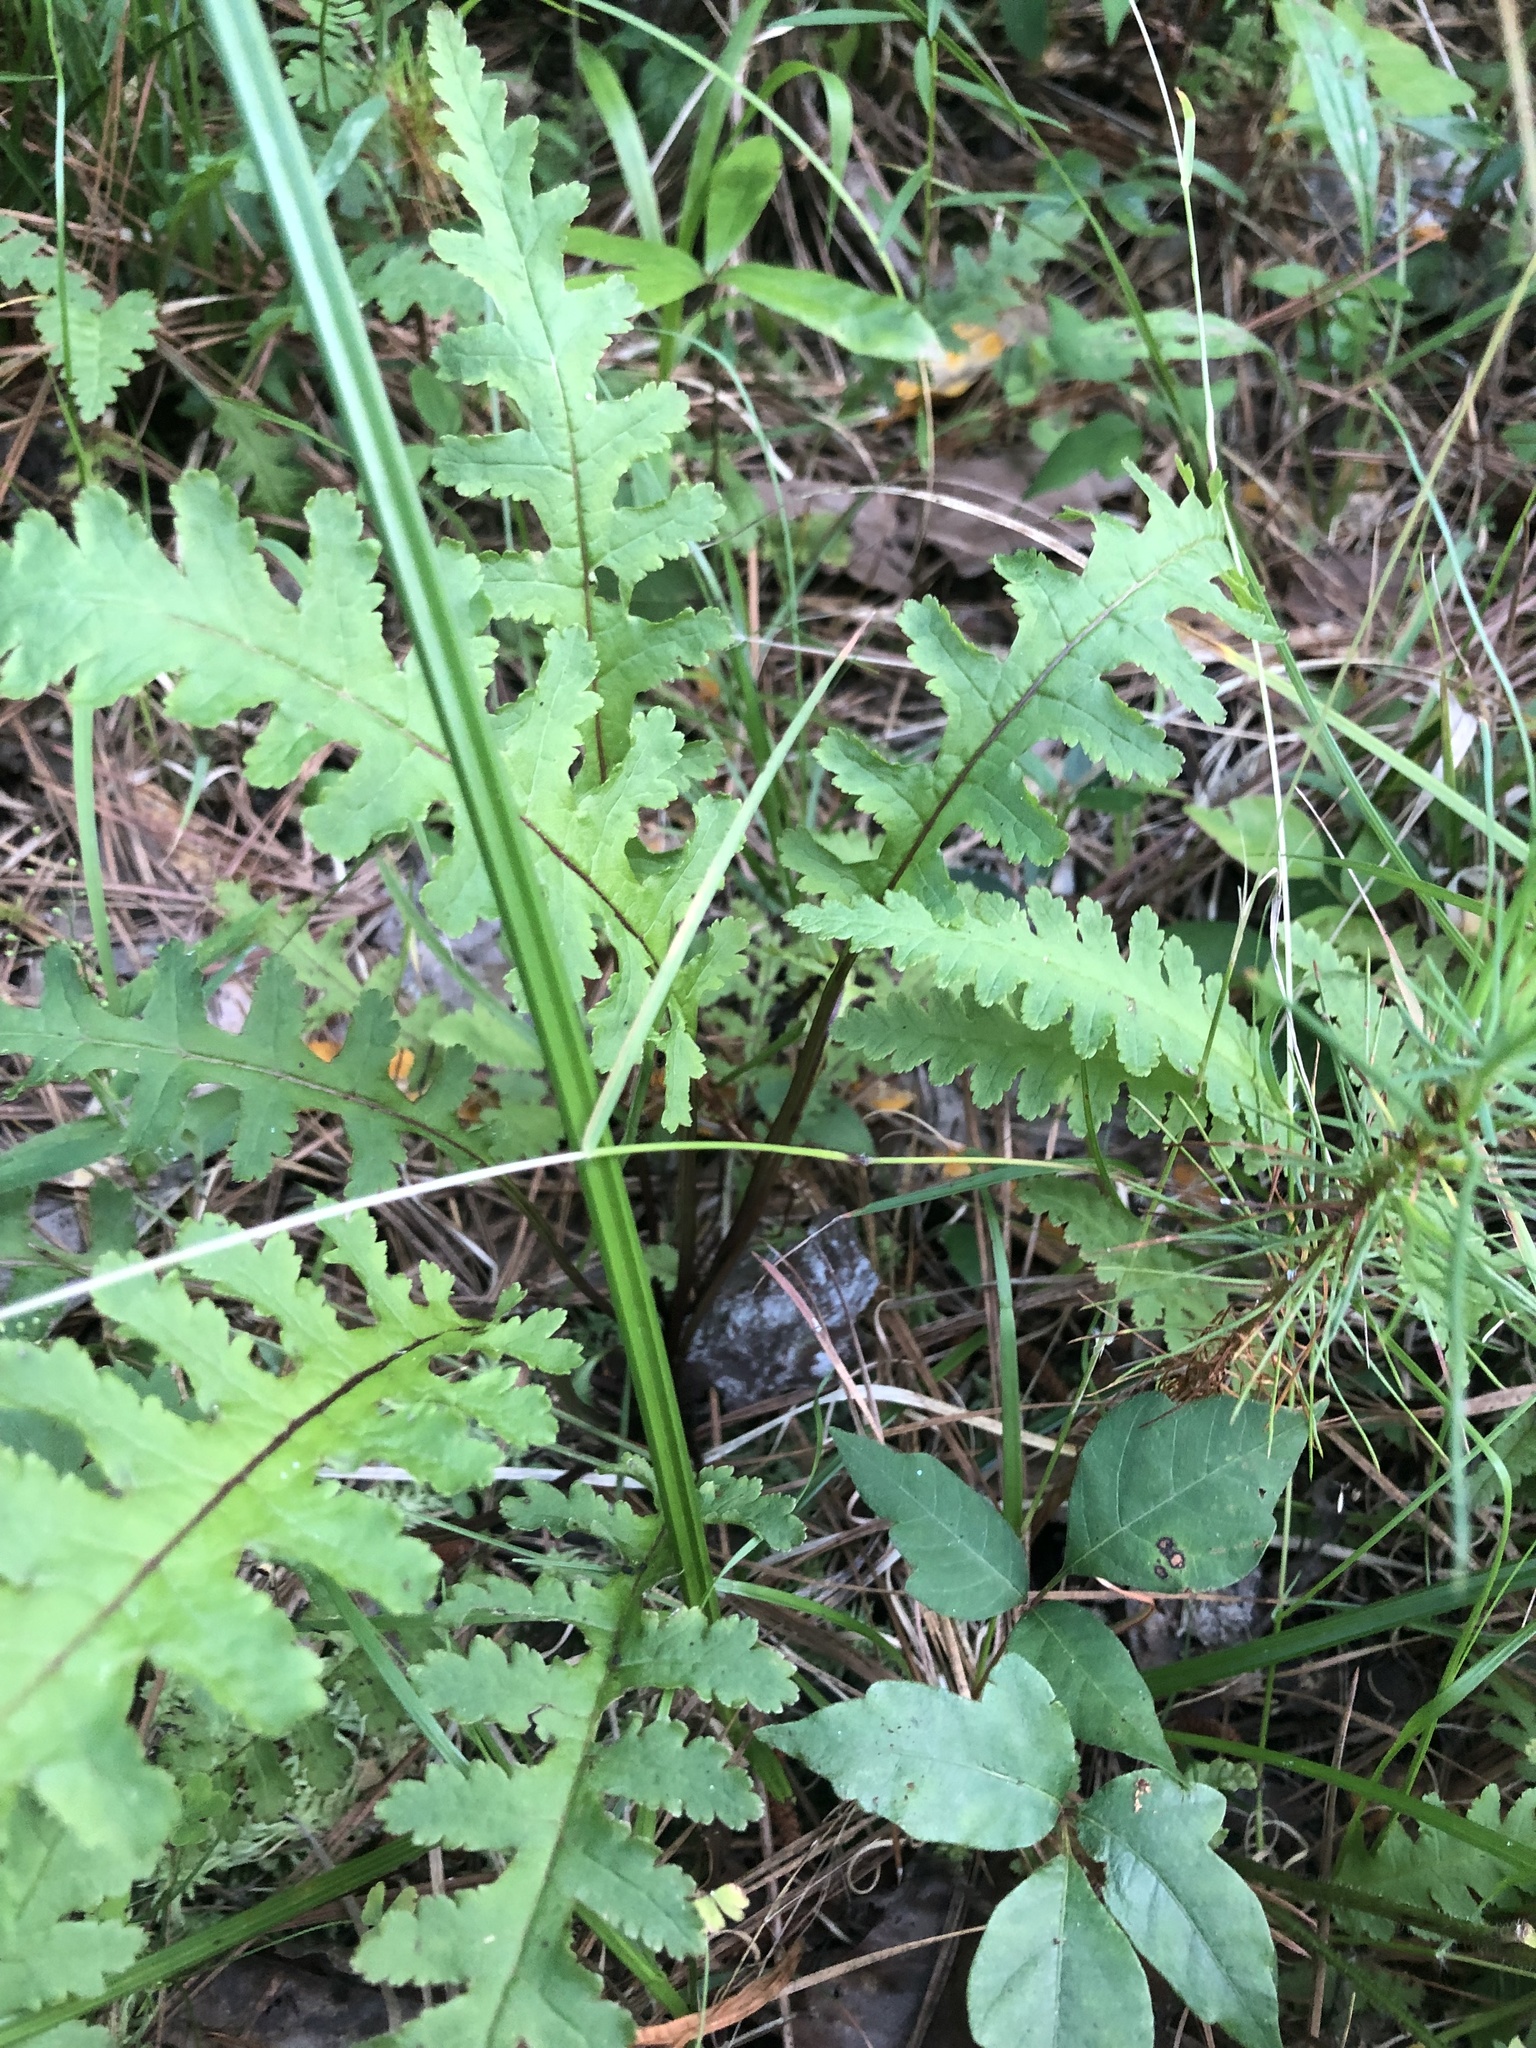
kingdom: Plantae
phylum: Tracheophyta
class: Magnoliopsida
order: Lamiales
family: Orobanchaceae
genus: Pedicularis
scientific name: Pedicularis canadensis
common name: Early lousewort
